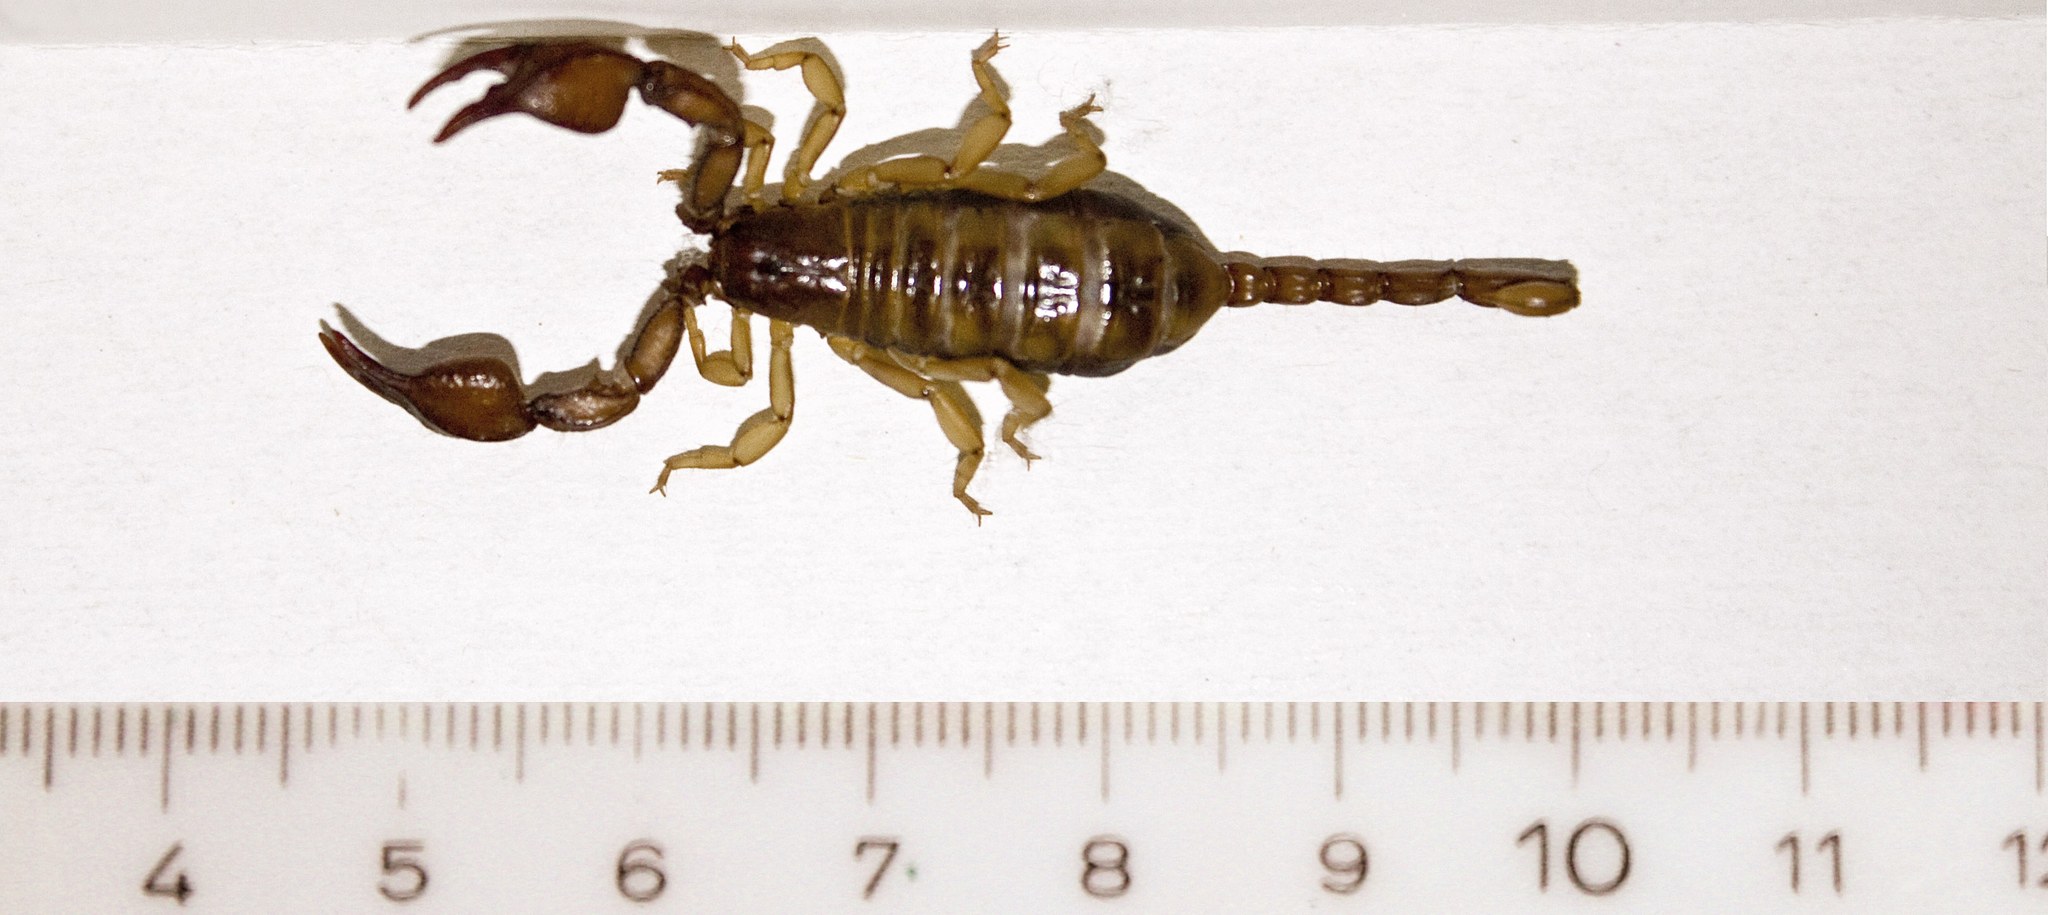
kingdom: Animalia
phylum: Arthropoda
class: Arachnida
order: Scorpiones
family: Euscorpiidae
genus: Euscorpius
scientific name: Euscorpius tergestinus
